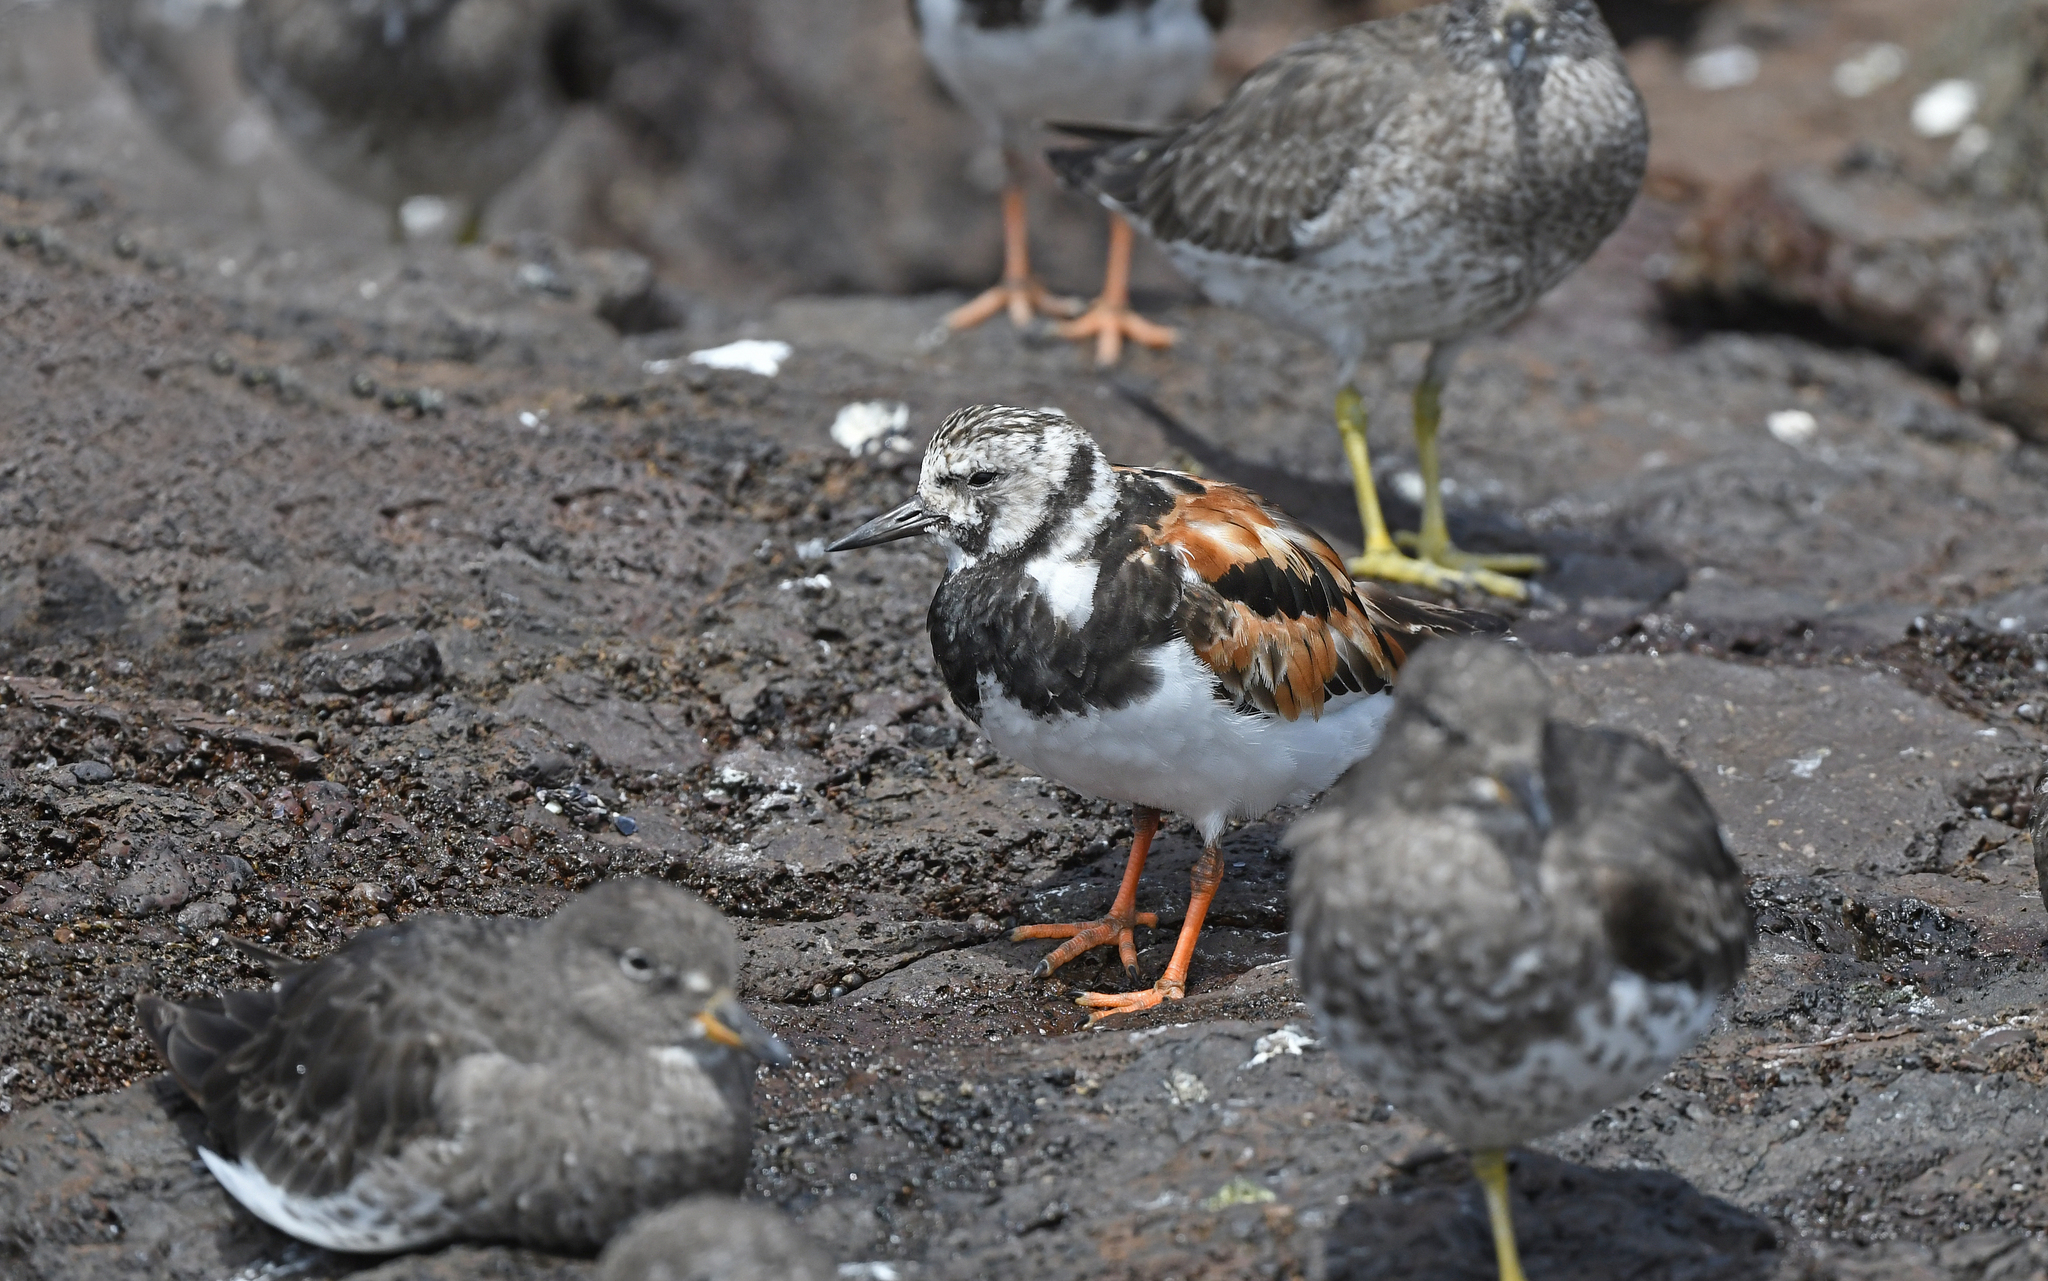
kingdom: Animalia
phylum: Chordata
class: Aves
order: Charadriiformes
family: Scolopacidae
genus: Arenaria
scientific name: Arenaria interpres
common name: Ruddy turnstone
